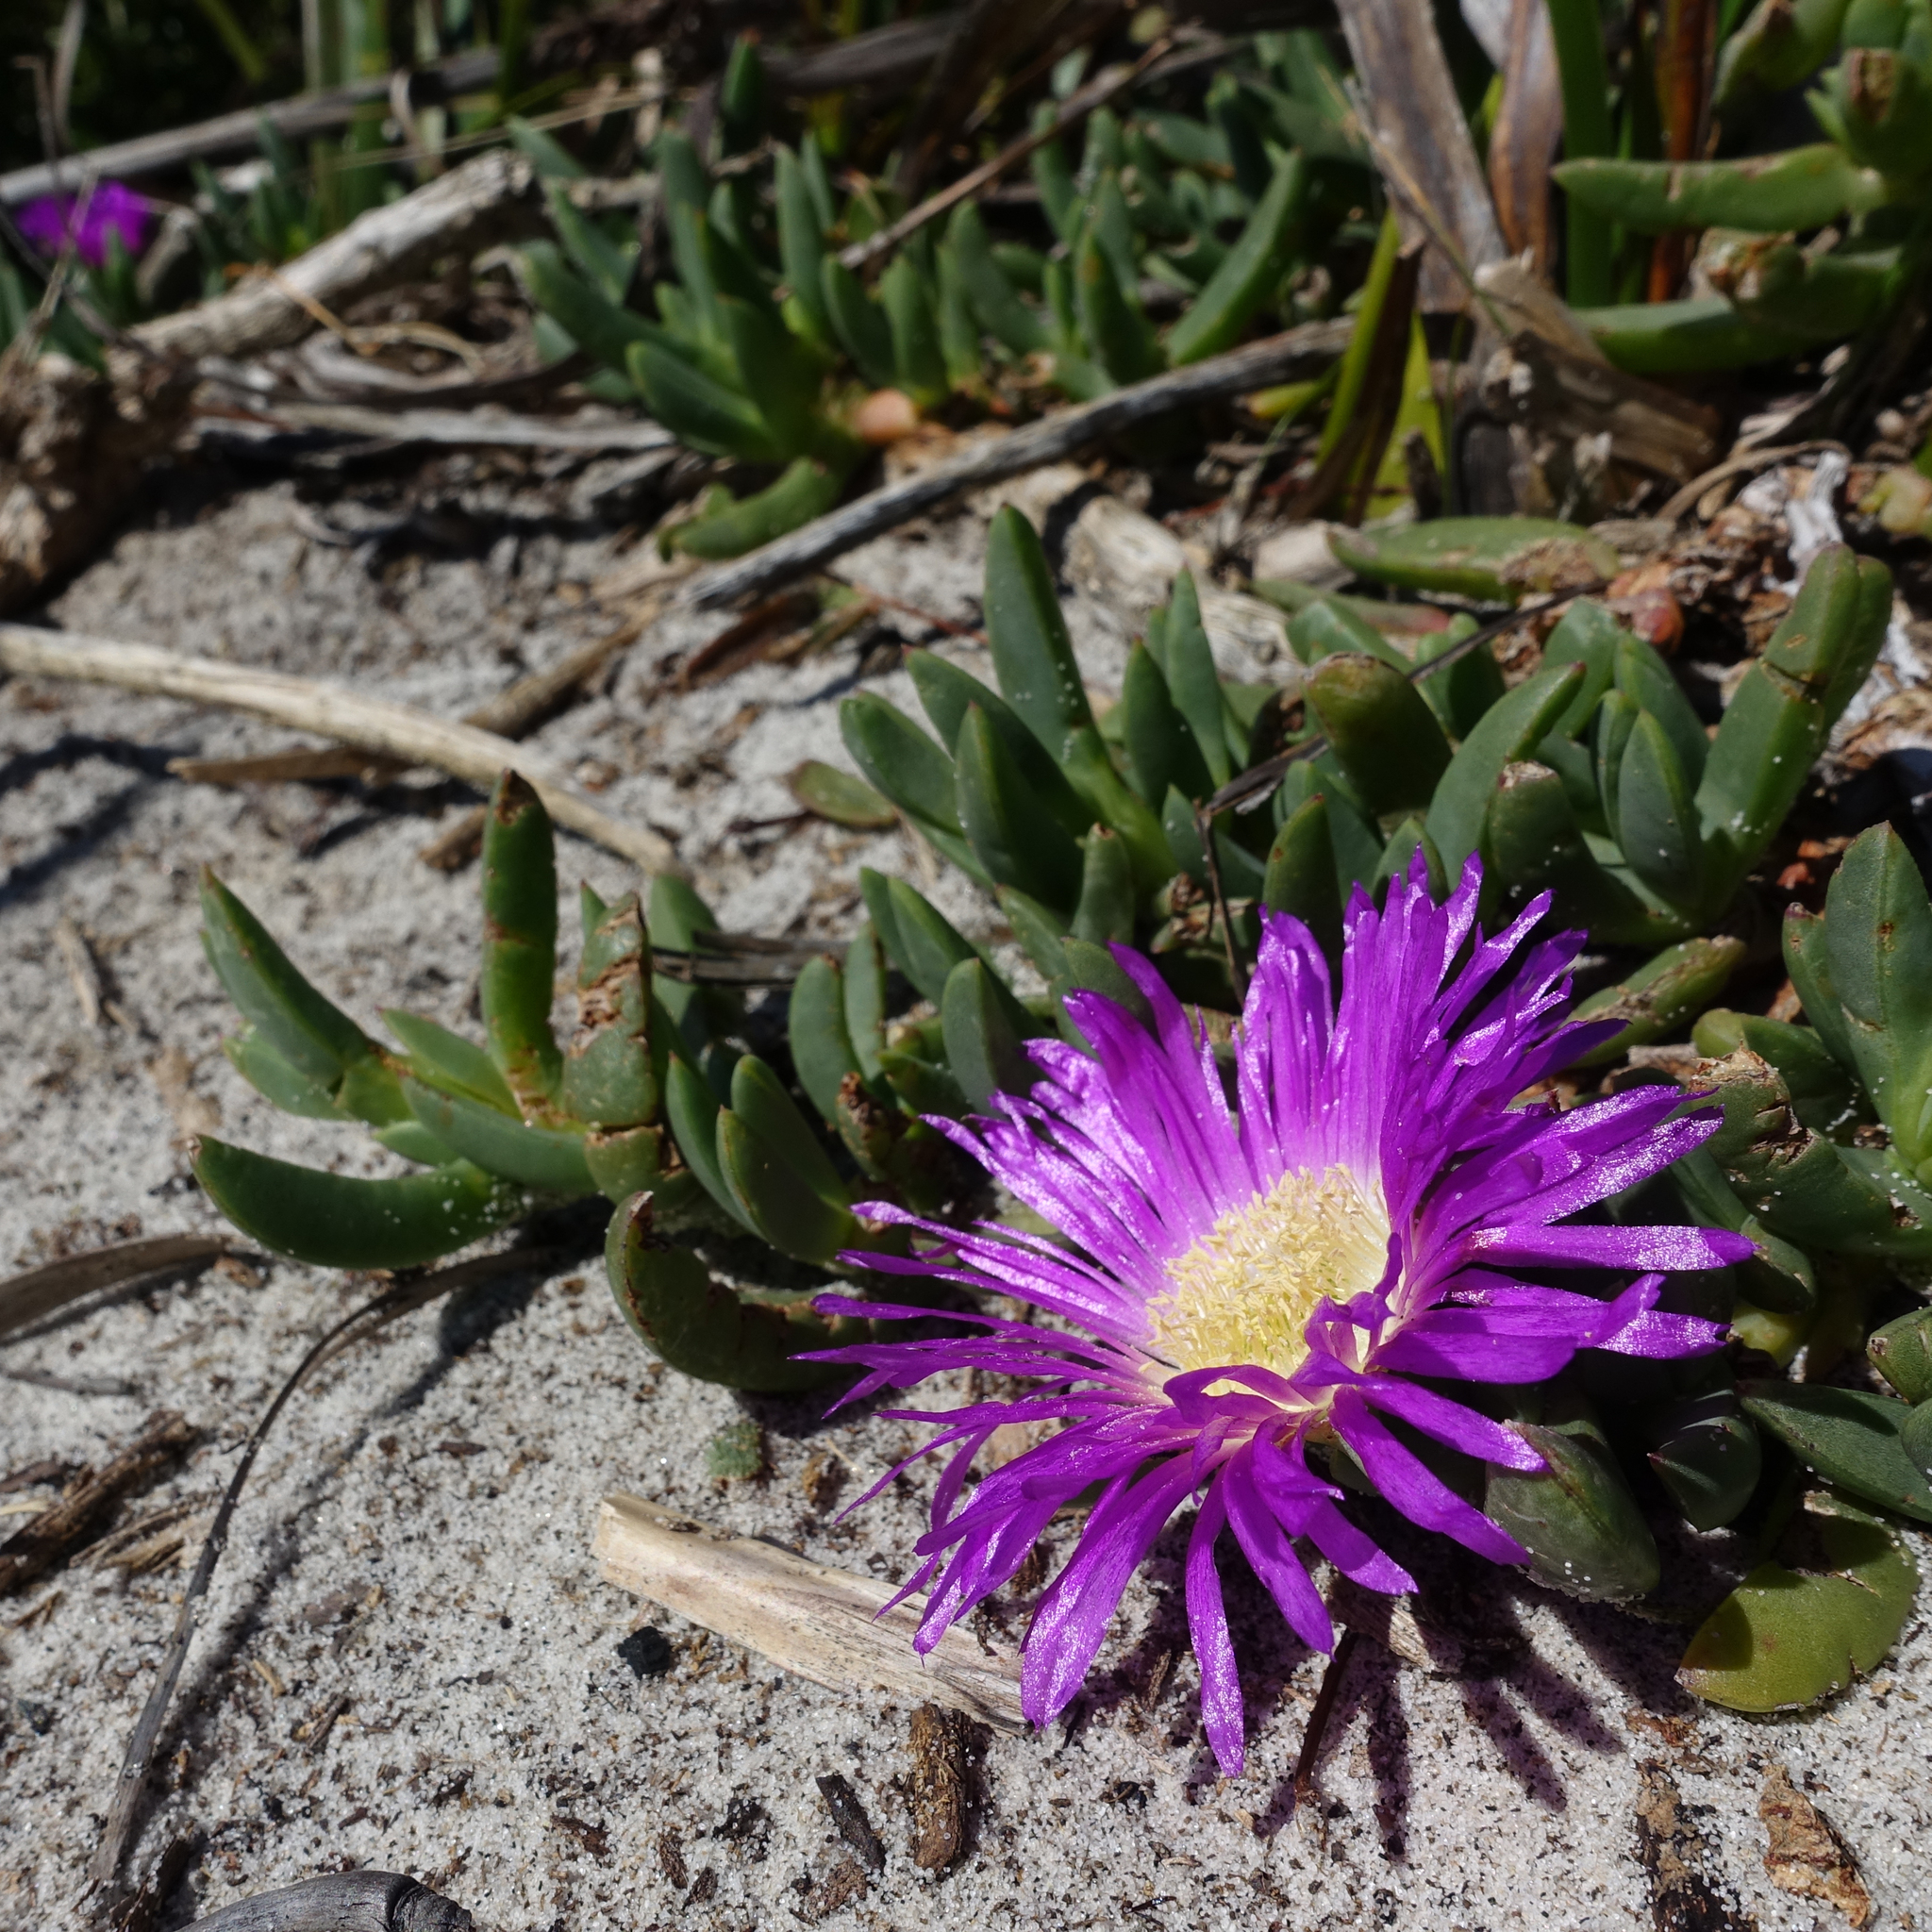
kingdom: Plantae
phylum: Tracheophyta
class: Magnoliopsida
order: Caryophyllales
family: Aizoaceae
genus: Carpobrotus
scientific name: Carpobrotus rossii
